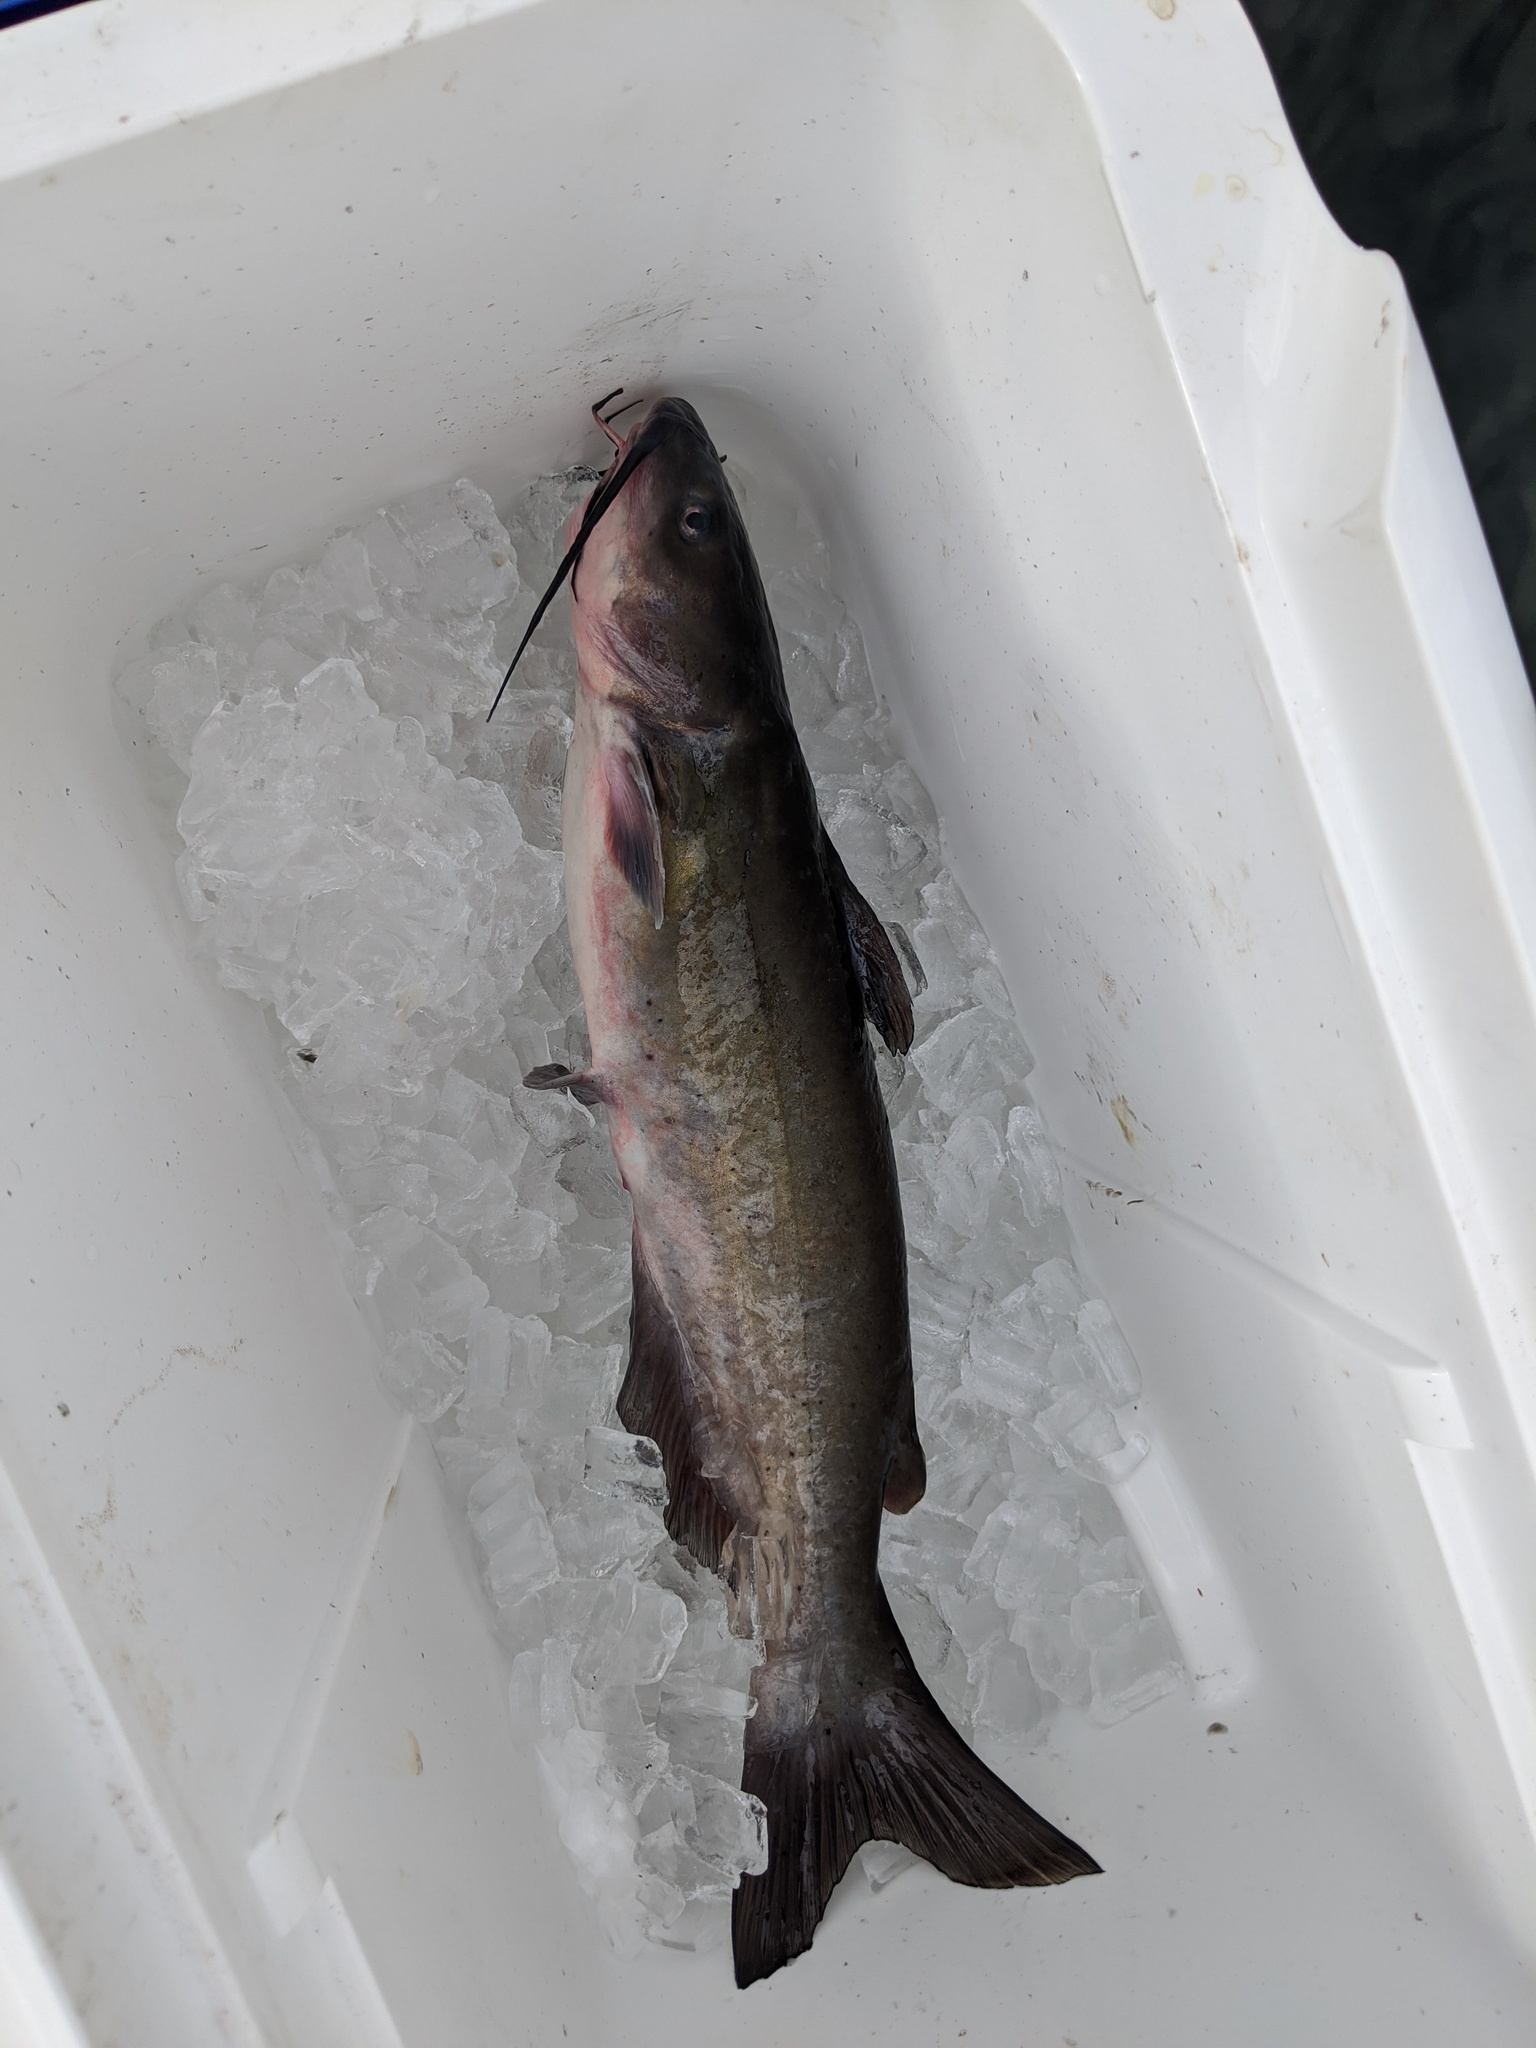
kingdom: Animalia
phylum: Chordata
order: Siluriformes
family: Ictaluridae
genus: Ictalurus
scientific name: Ictalurus punctatus
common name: Channel catfish
